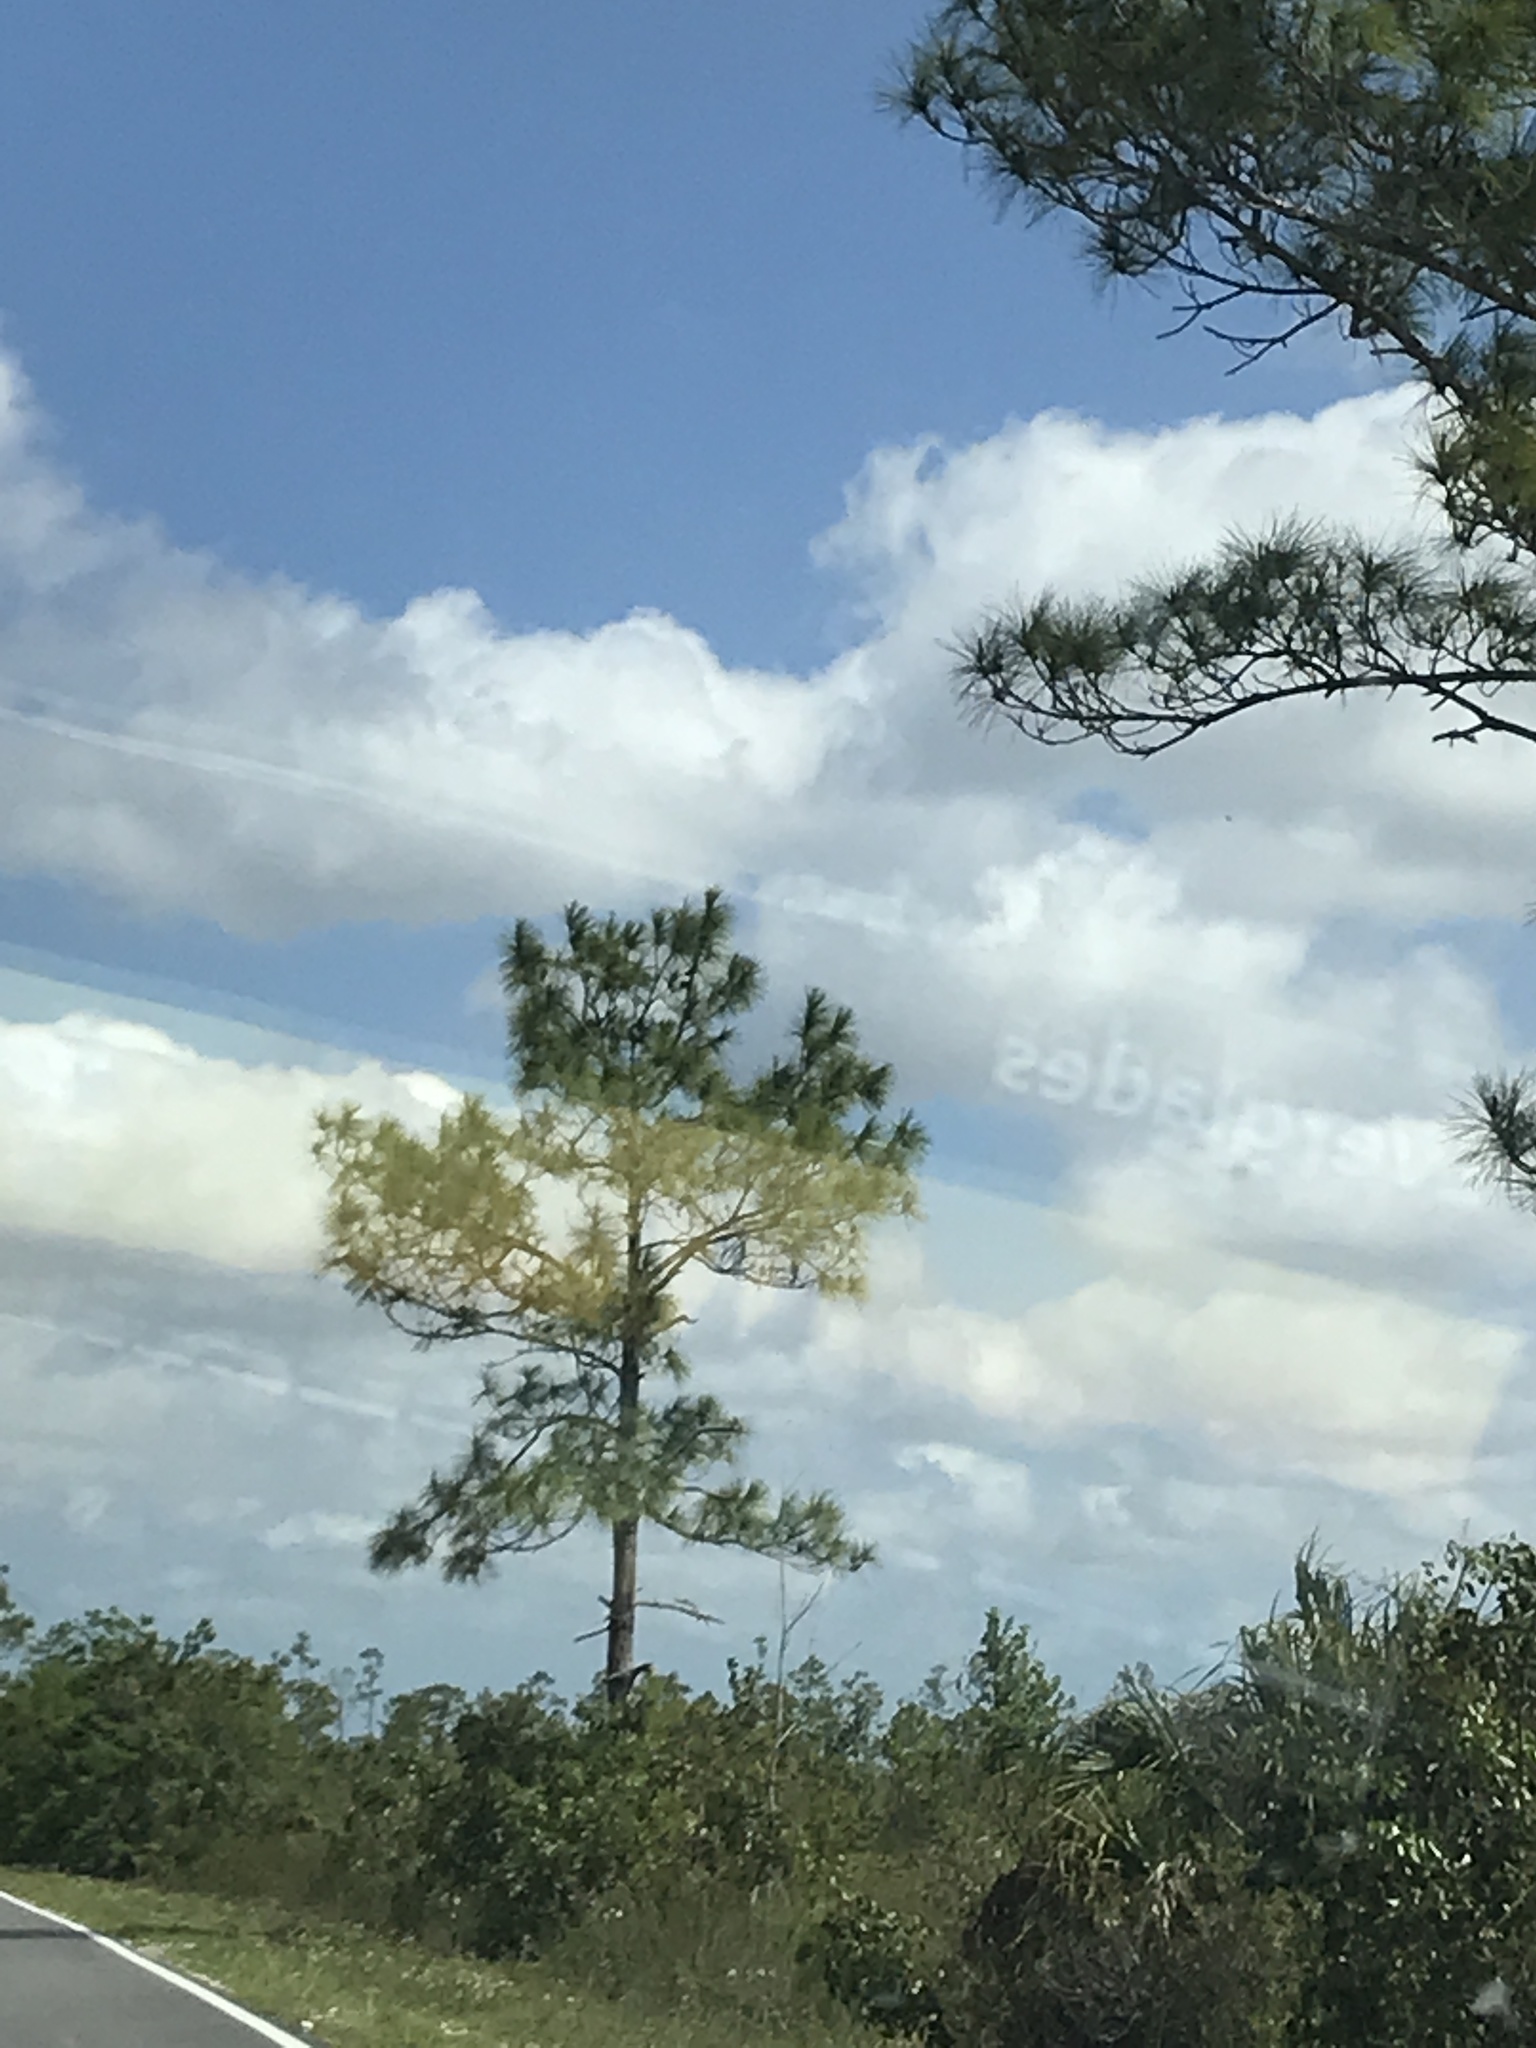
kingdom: Plantae
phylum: Tracheophyta
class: Pinopsida
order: Pinales
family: Pinaceae
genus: Pinus
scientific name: Pinus elliottii
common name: Slash pine
